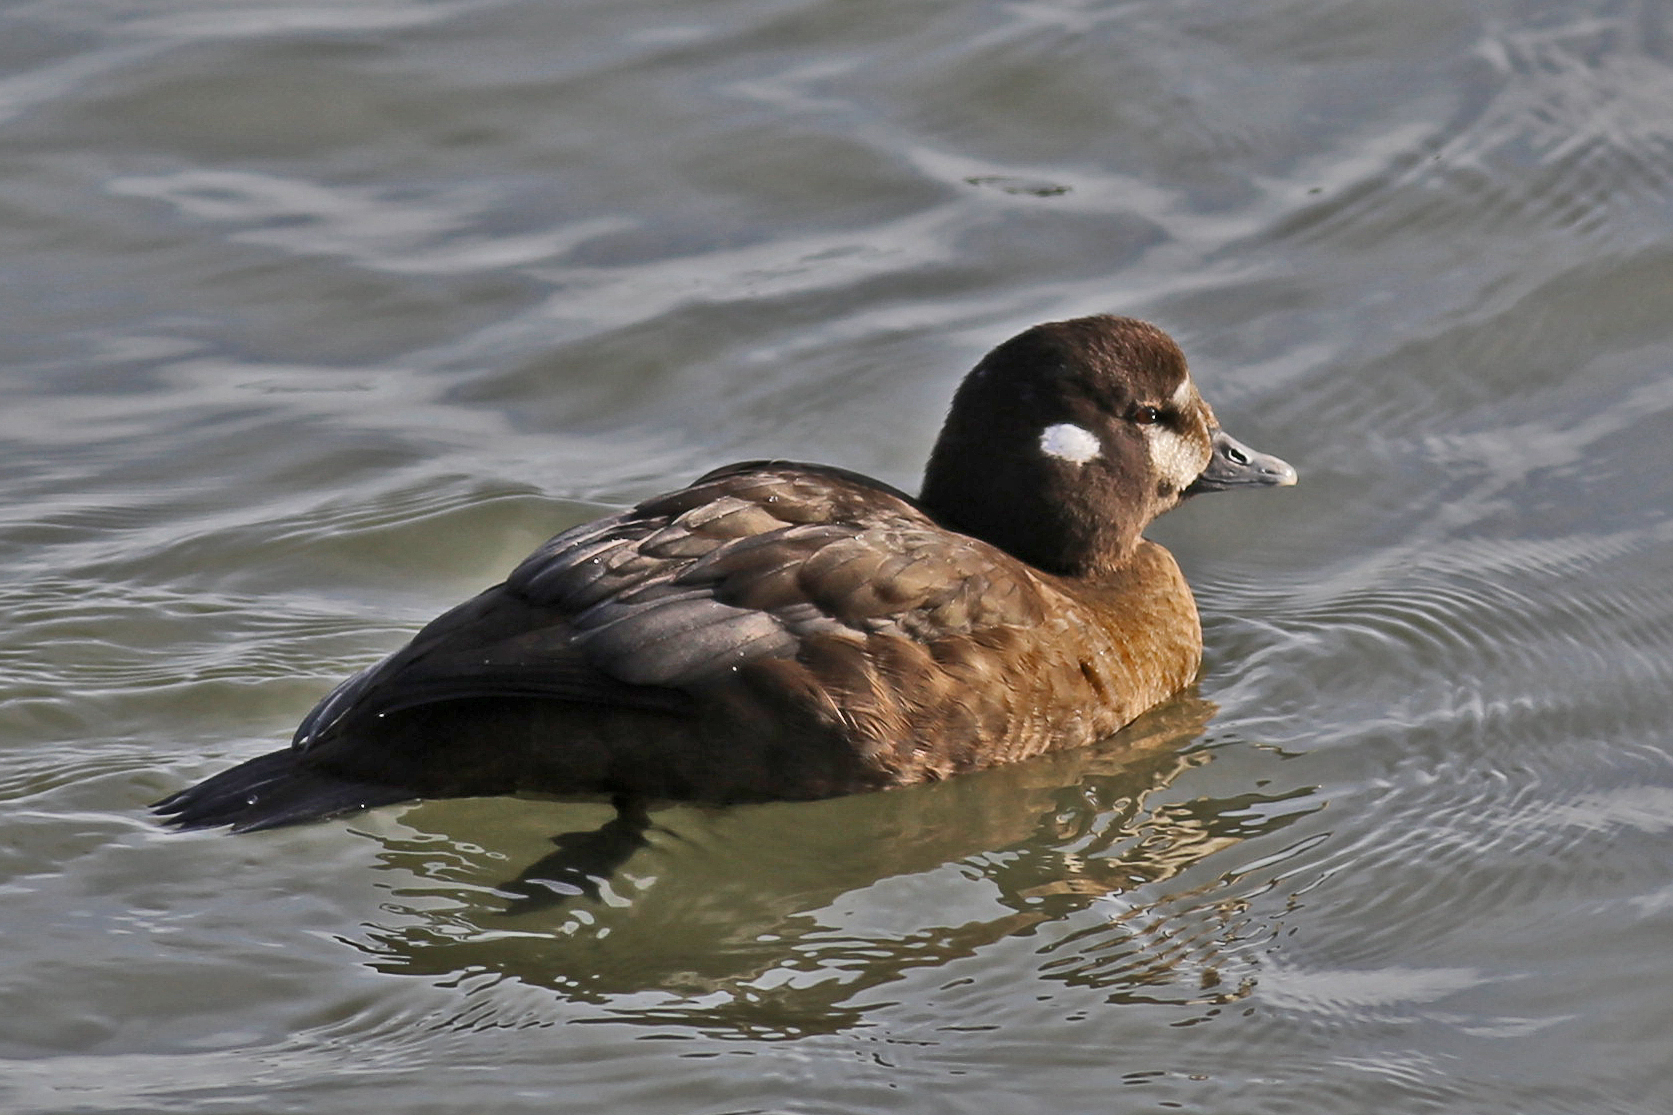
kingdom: Animalia
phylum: Chordata
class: Aves
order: Anseriformes
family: Anatidae
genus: Histrionicus
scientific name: Histrionicus histrionicus
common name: Harlequin duck
